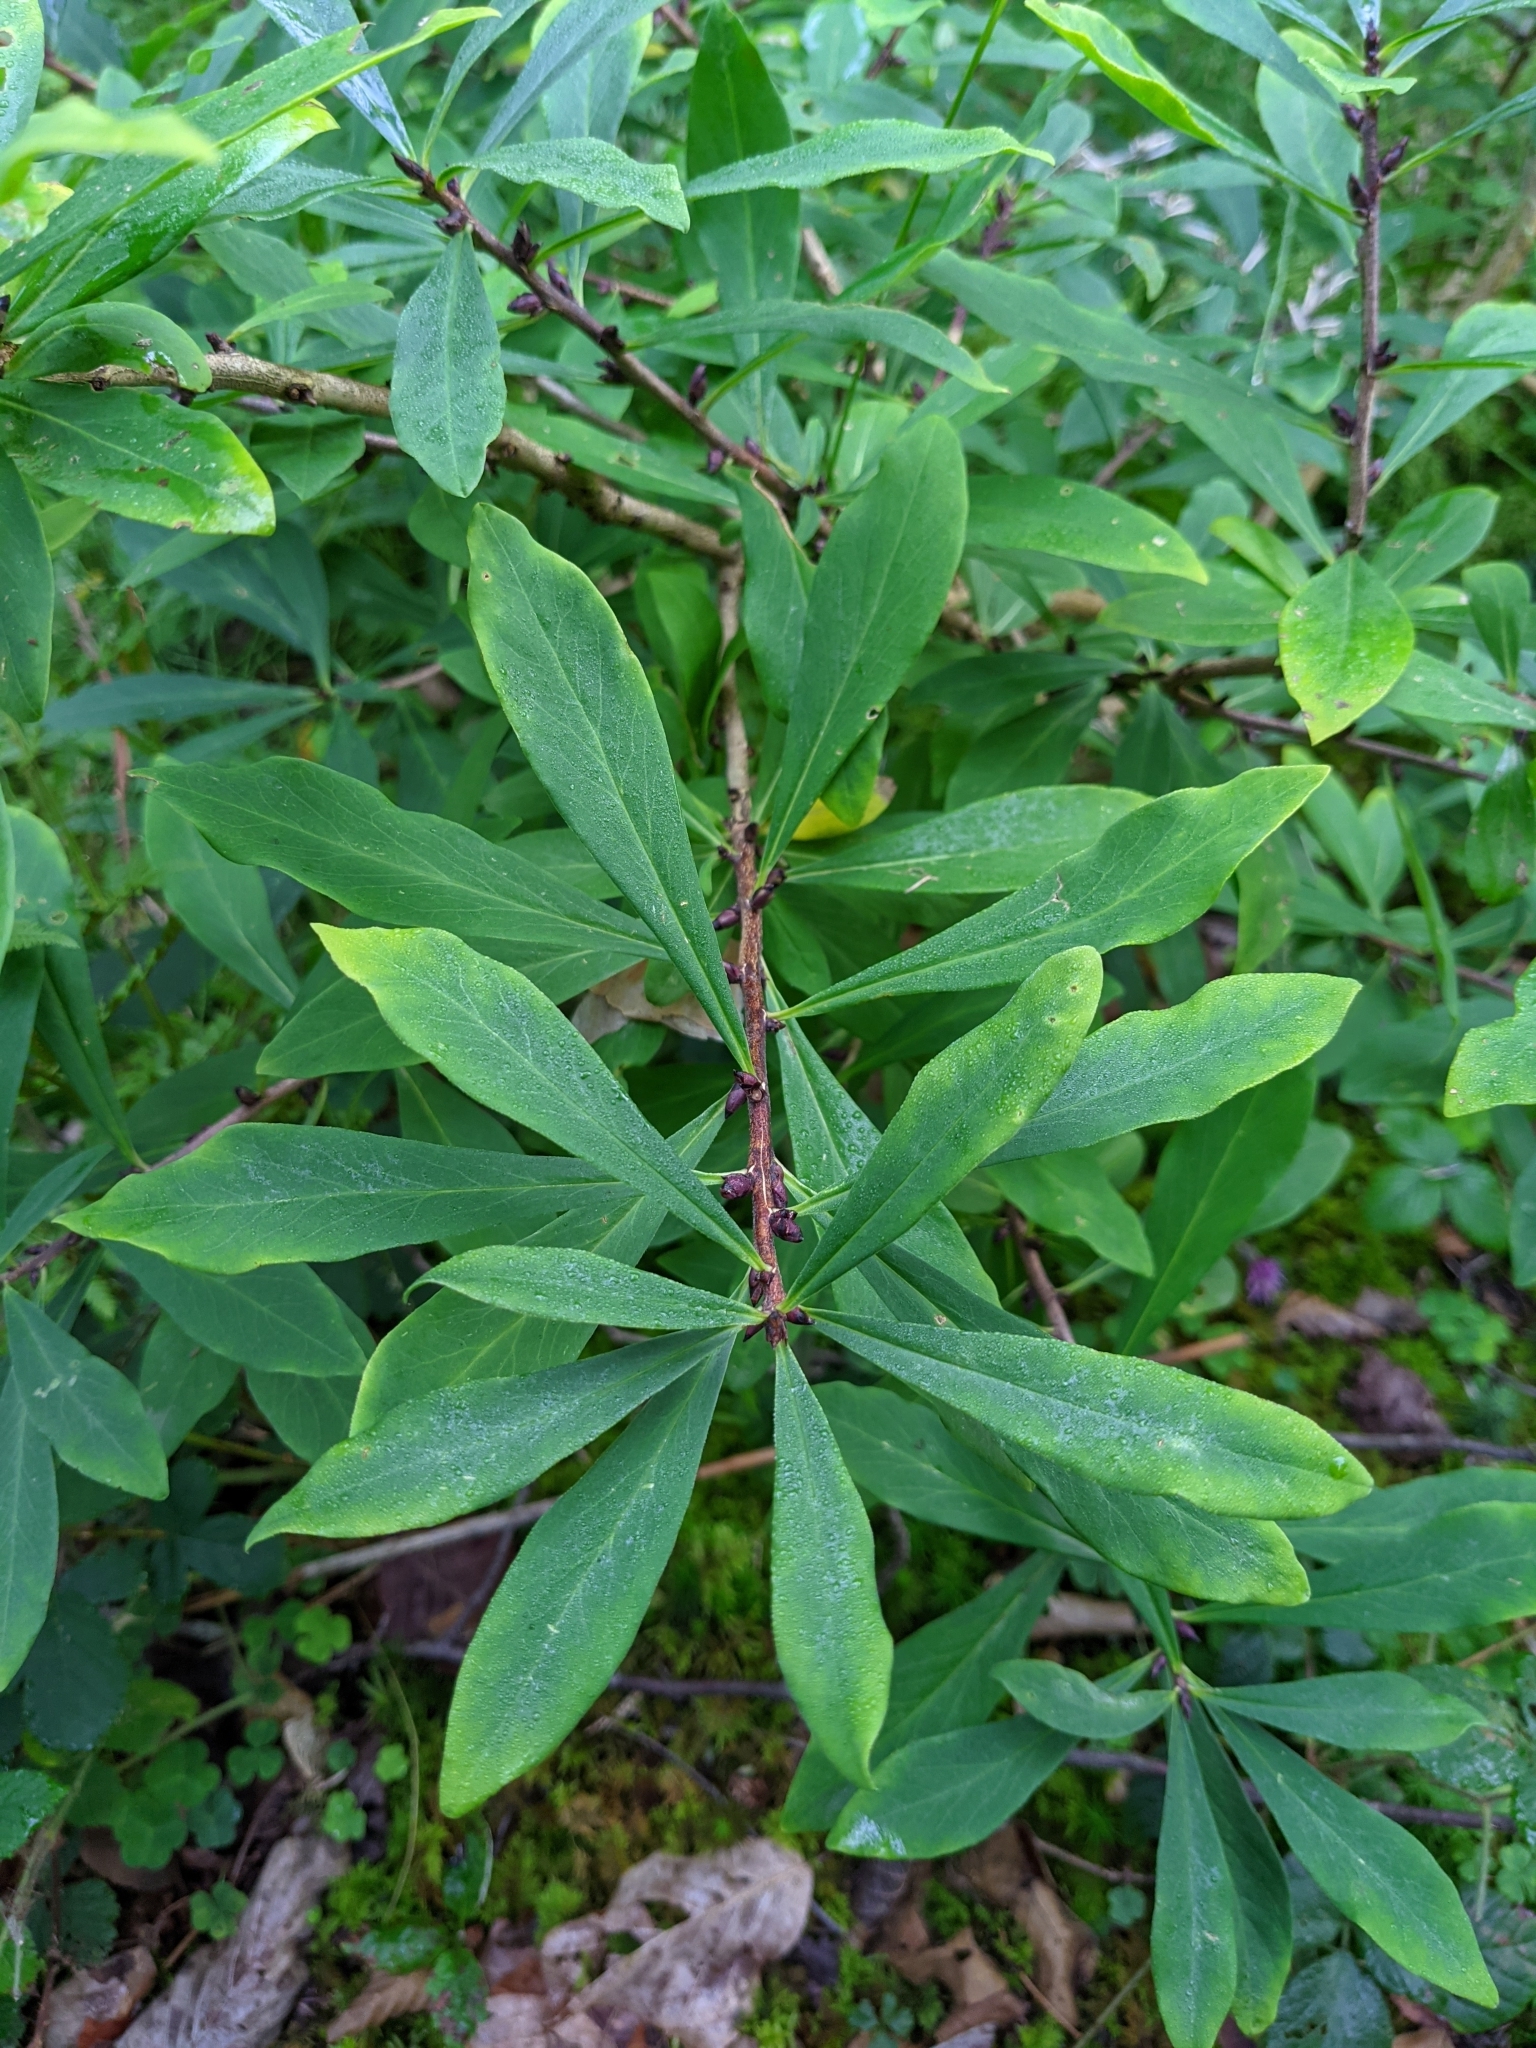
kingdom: Plantae
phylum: Tracheophyta
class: Magnoliopsida
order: Malvales
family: Thymelaeaceae
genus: Daphne
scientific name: Daphne mezereum
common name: Mezereon
